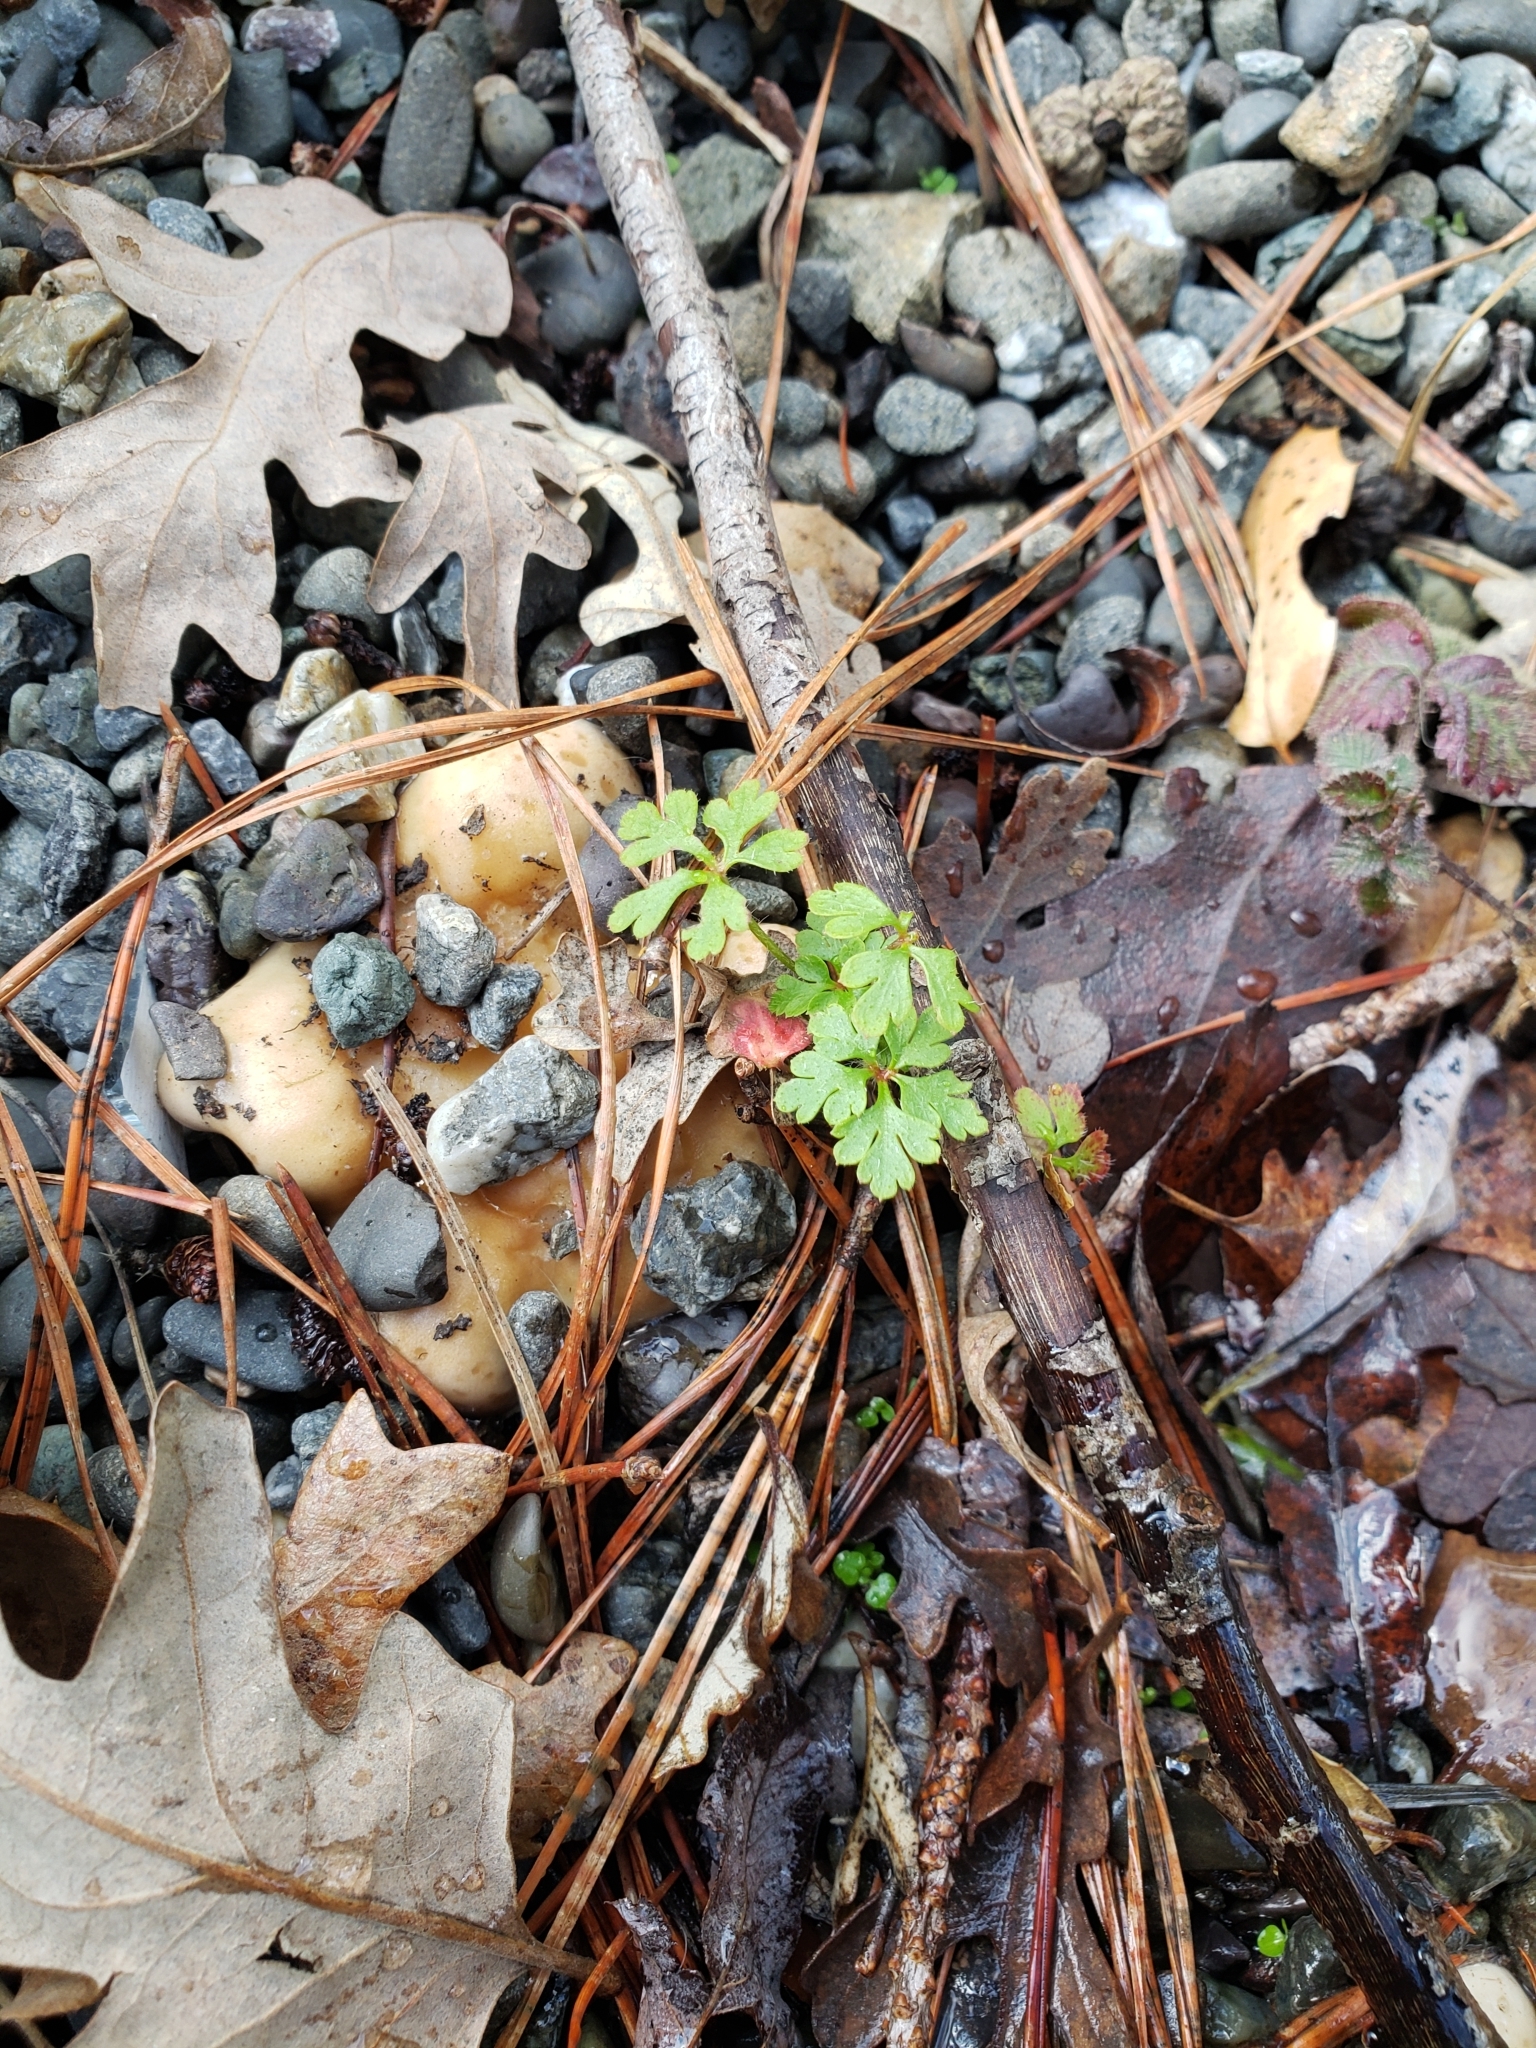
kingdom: Plantae
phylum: Tracheophyta
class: Magnoliopsida
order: Geraniales
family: Geraniaceae
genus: Geranium
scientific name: Geranium
